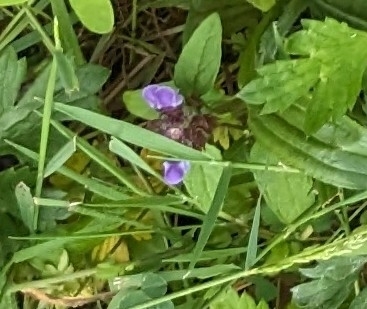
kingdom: Plantae
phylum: Tracheophyta
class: Magnoliopsida
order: Lamiales
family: Lamiaceae
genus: Prunella
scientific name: Prunella vulgaris
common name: Heal-all
